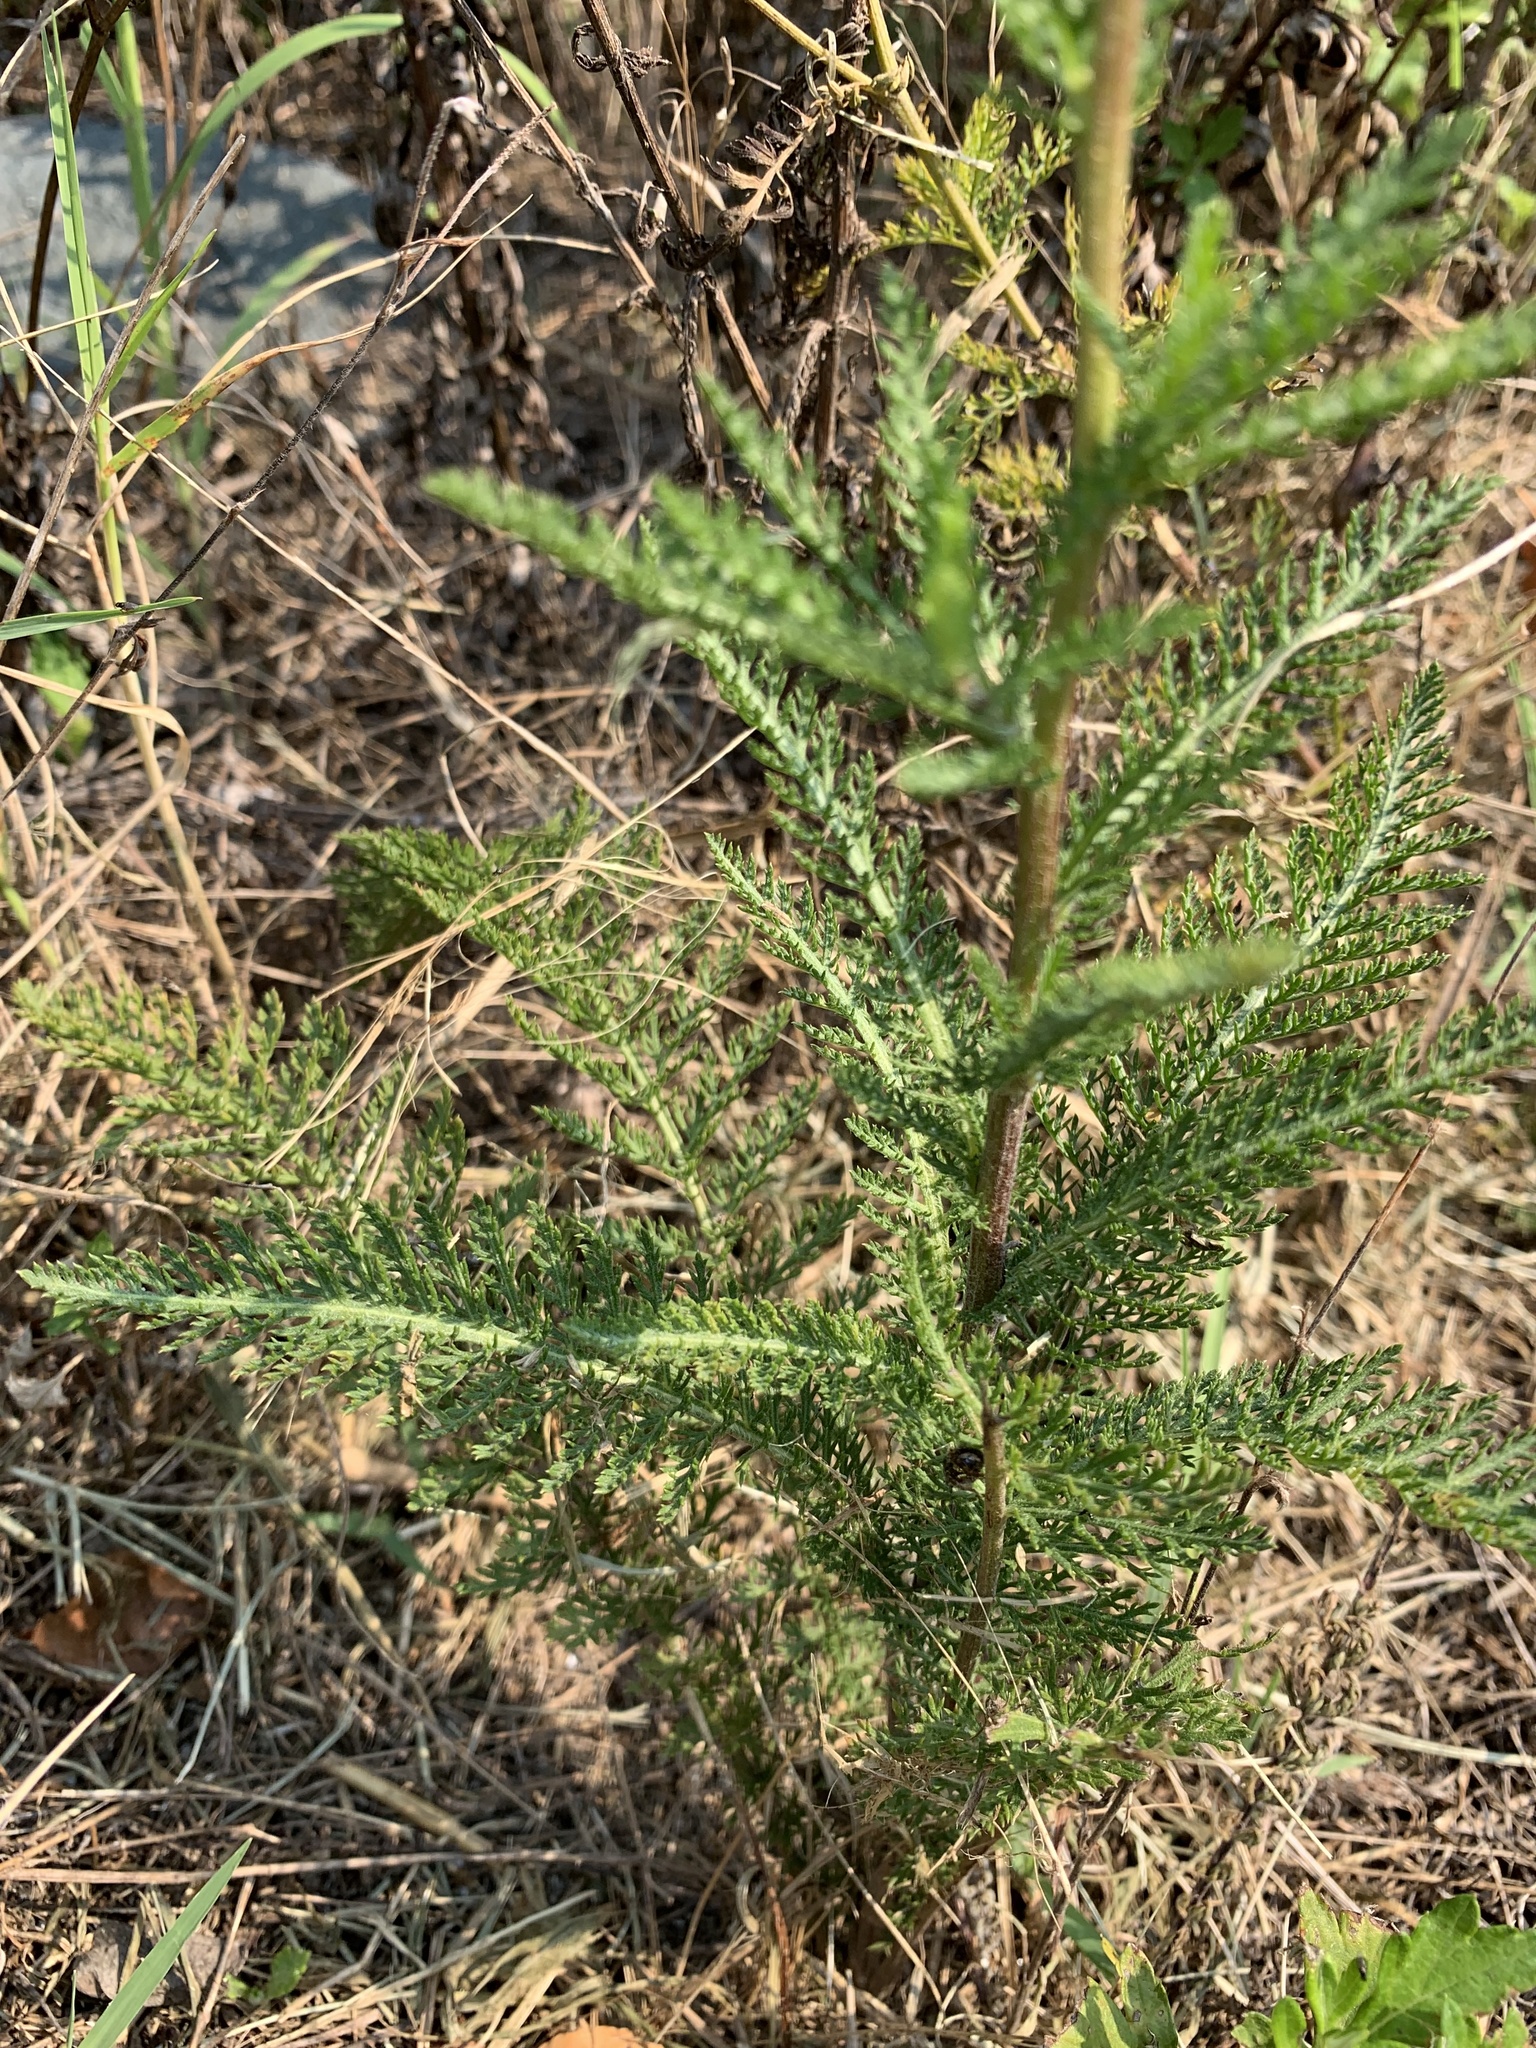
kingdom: Plantae
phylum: Tracheophyta
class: Magnoliopsida
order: Asterales
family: Asteraceae
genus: Achillea
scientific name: Achillea millefolium
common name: Yarrow
